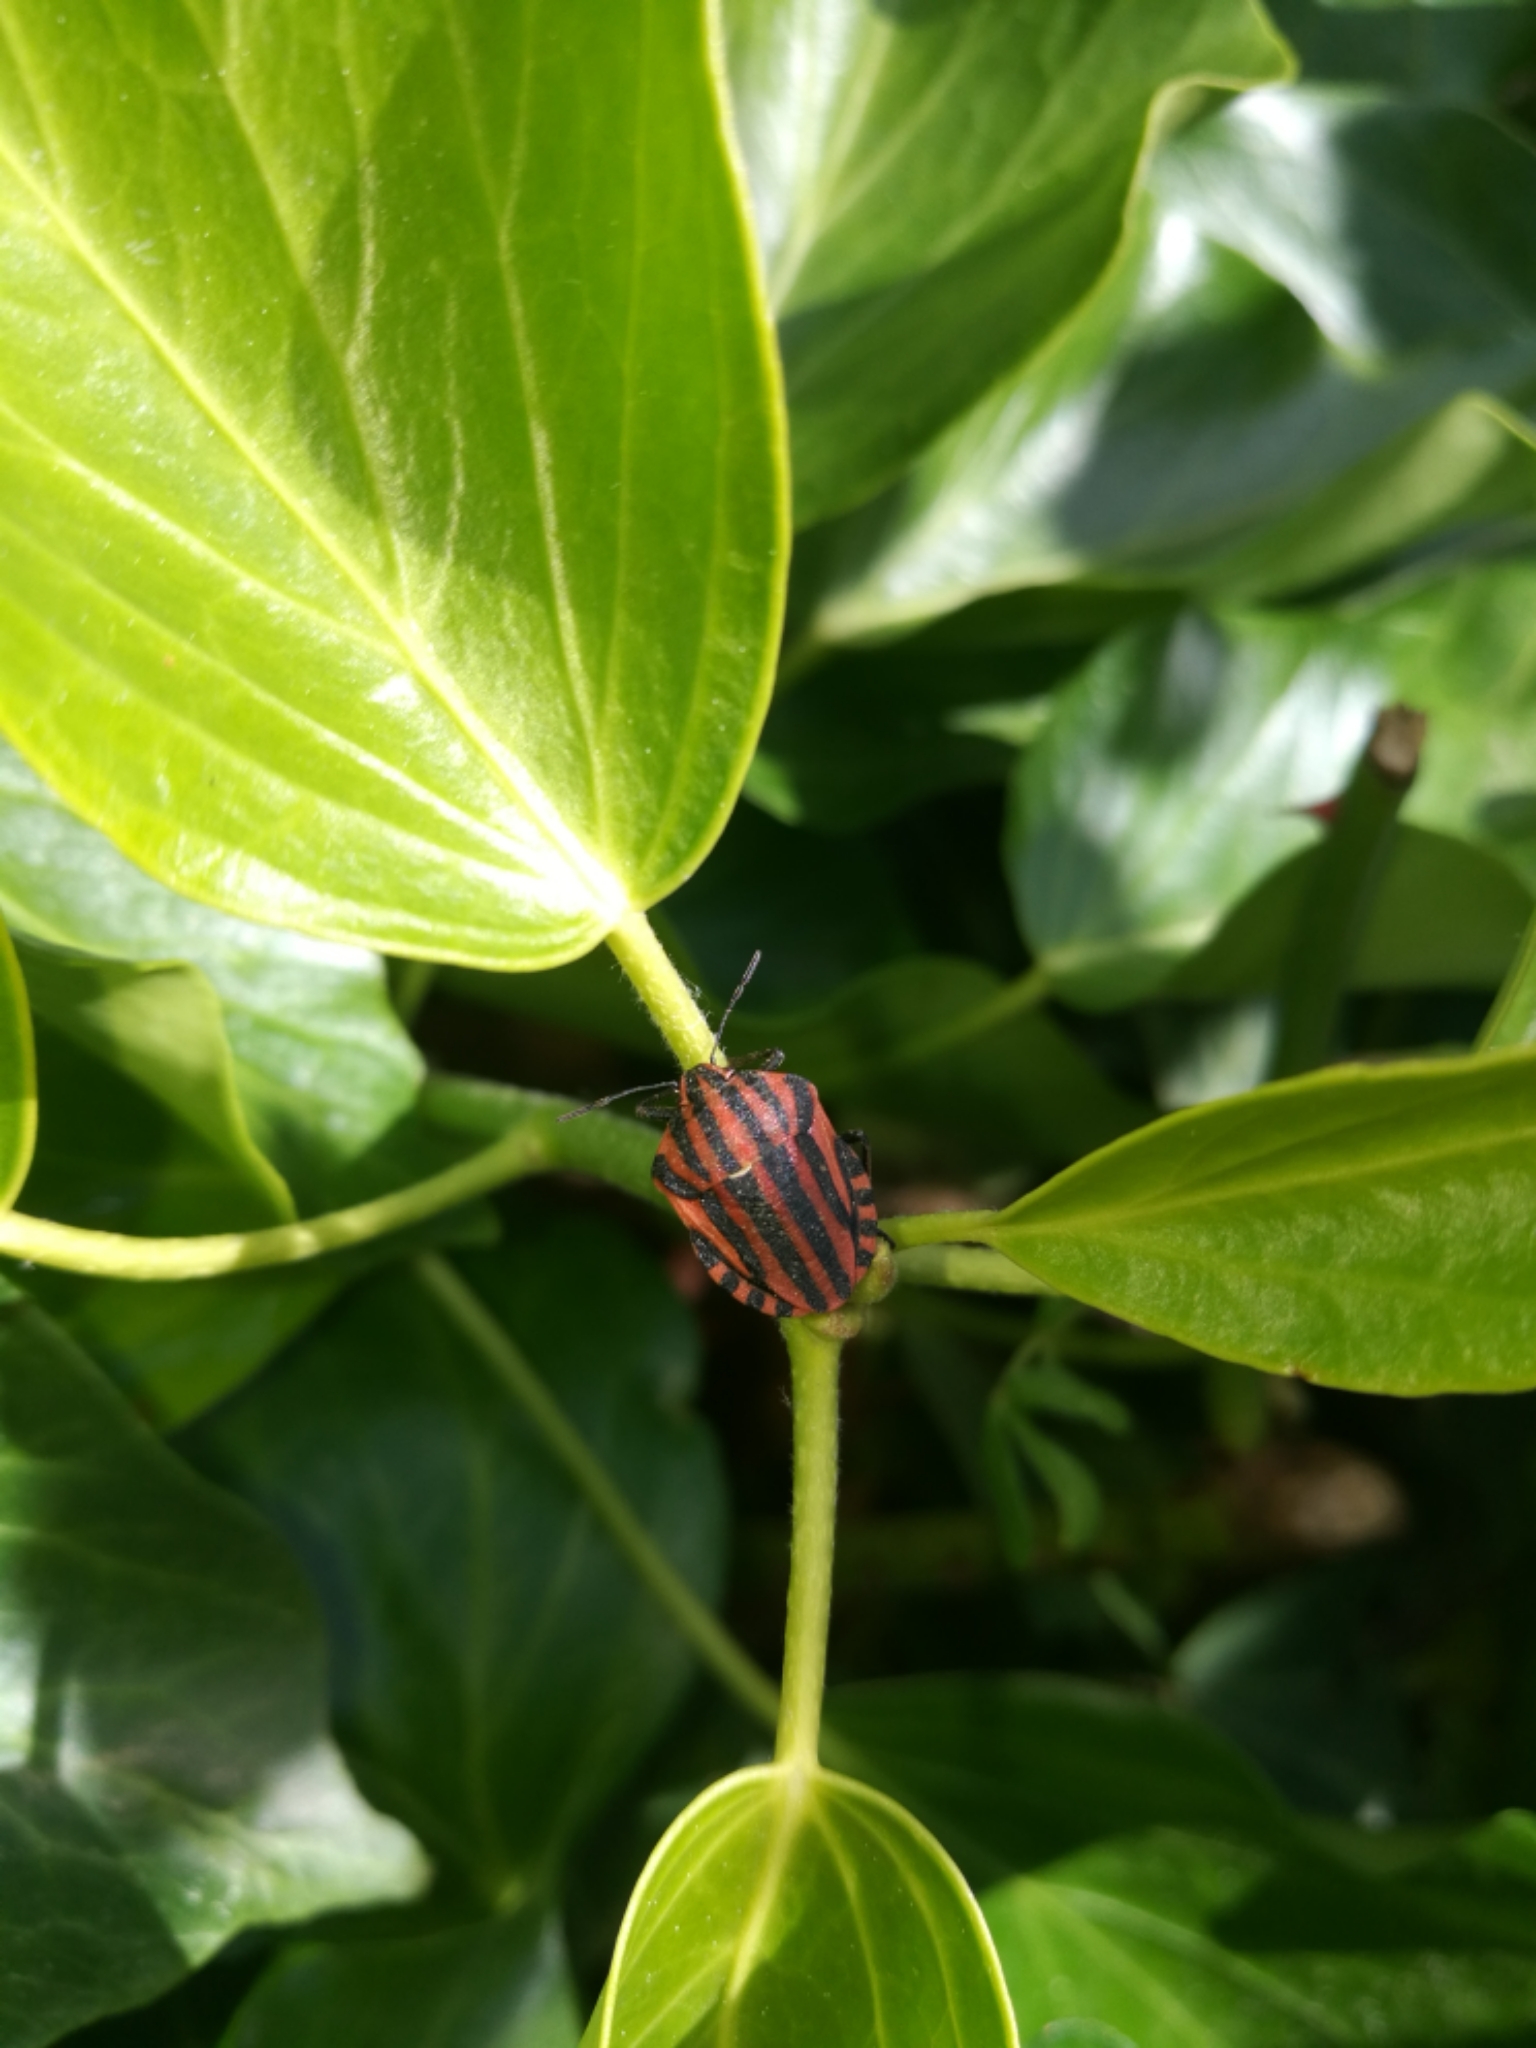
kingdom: Animalia
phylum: Arthropoda
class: Insecta
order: Hemiptera
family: Pentatomidae
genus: Graphosoma
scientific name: Graphosoma italicum
